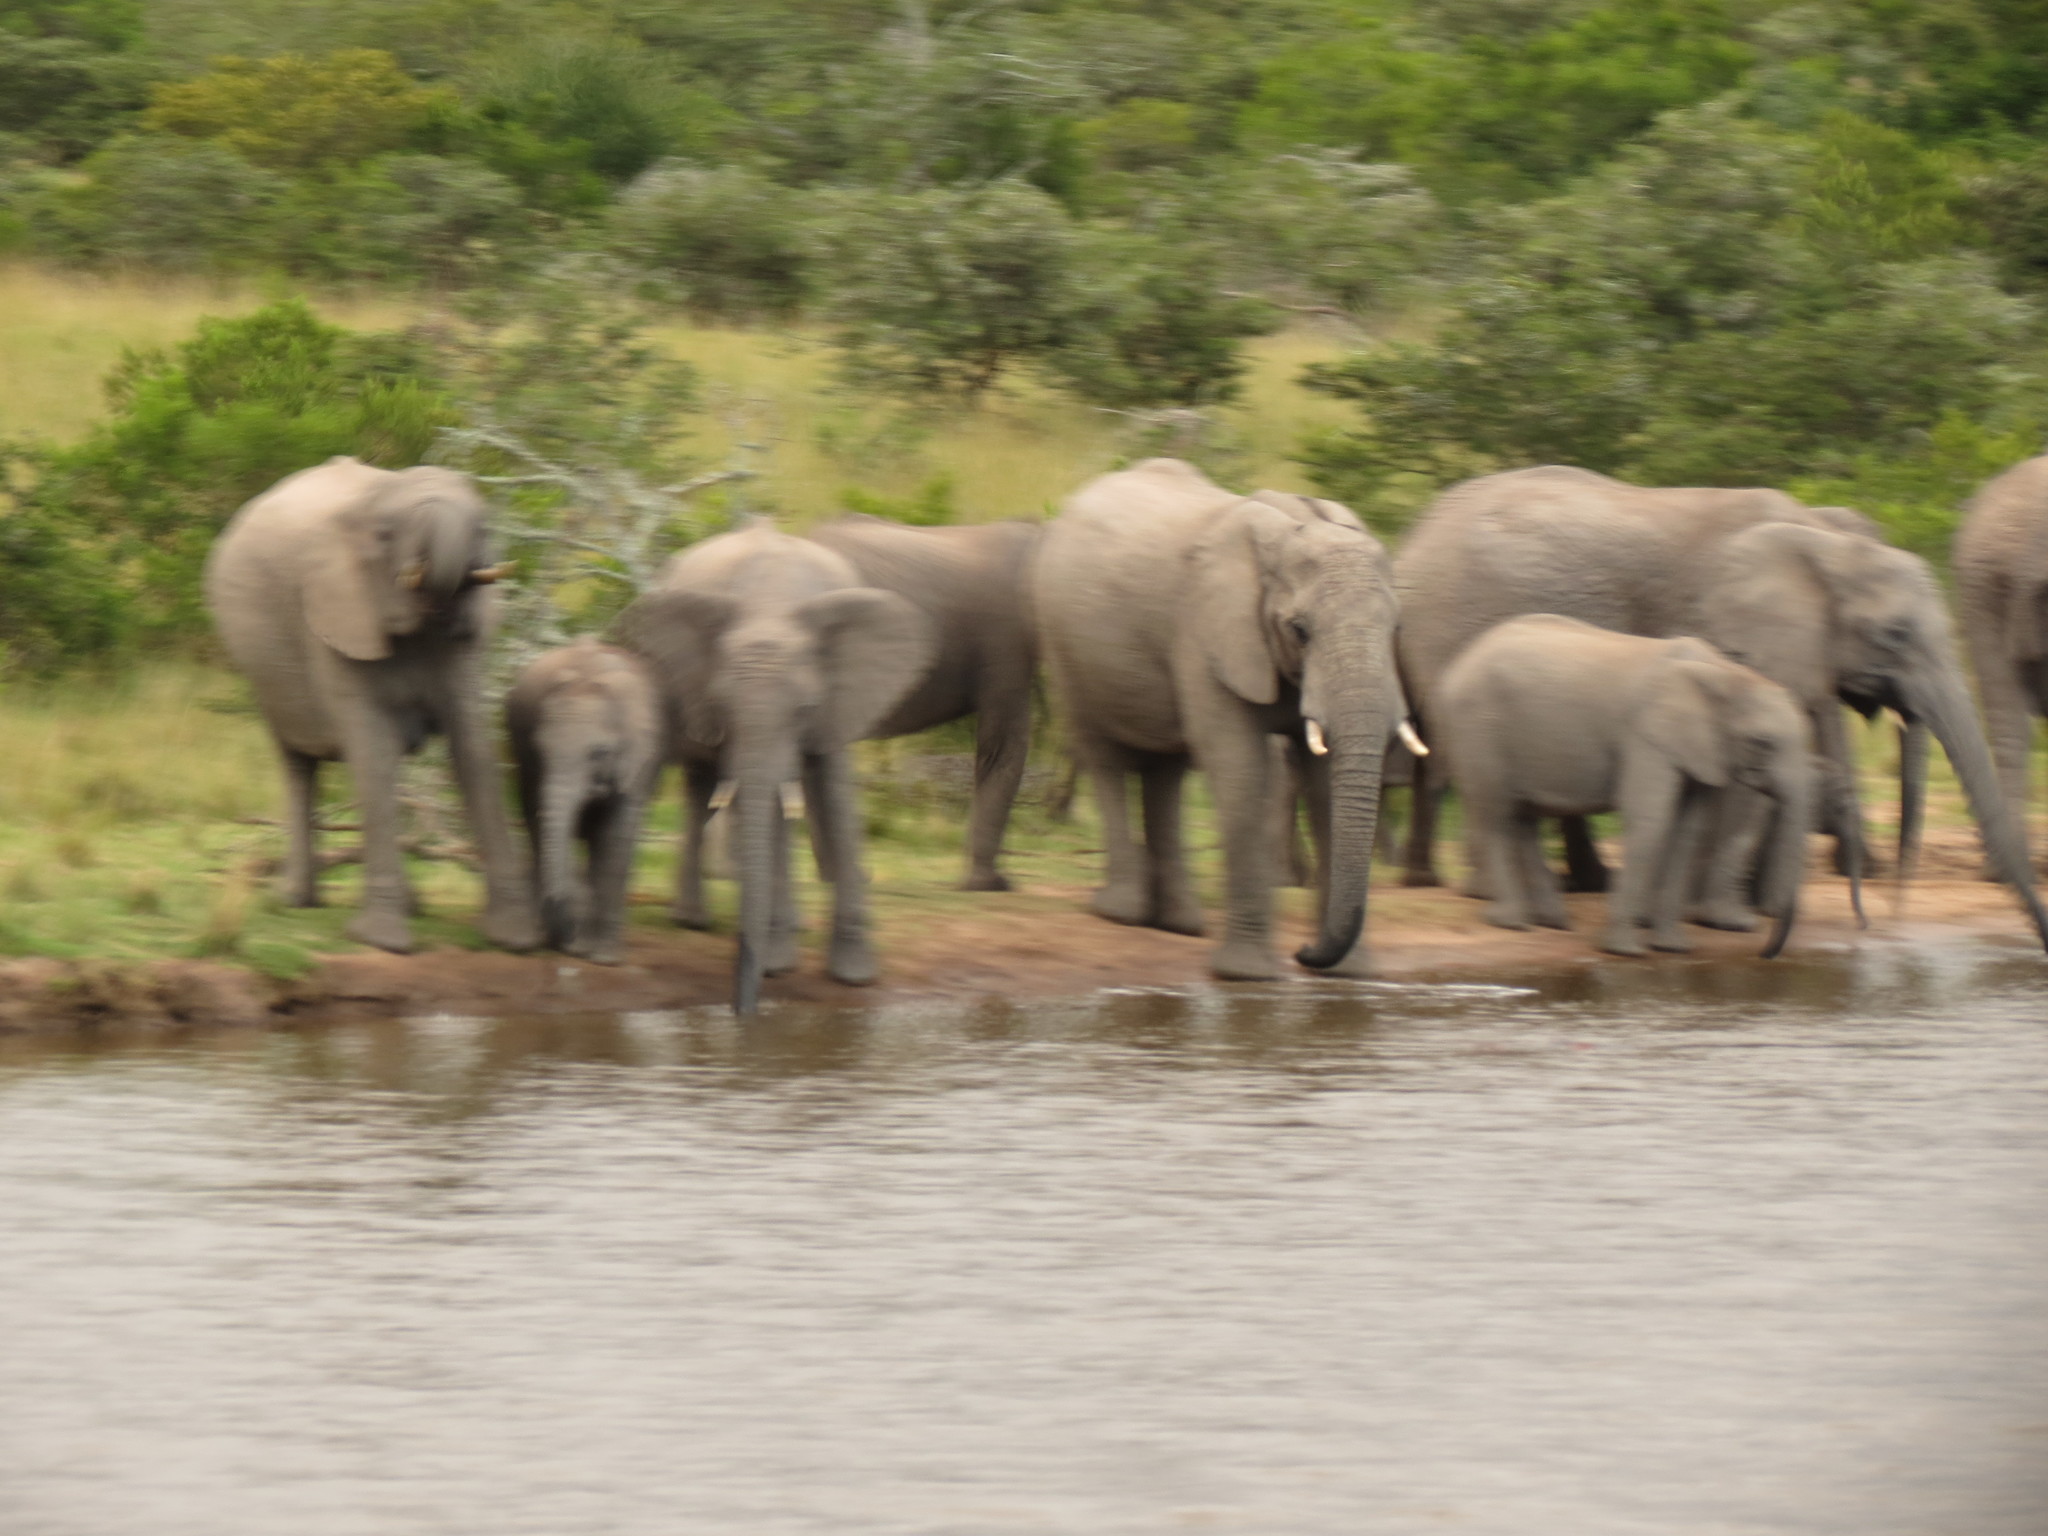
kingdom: Animalia
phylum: Chordata
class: Mammalia
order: Proboscidea
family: Elephantidae
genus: Loxodonta
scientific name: Loxodonta africana
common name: African elephant
